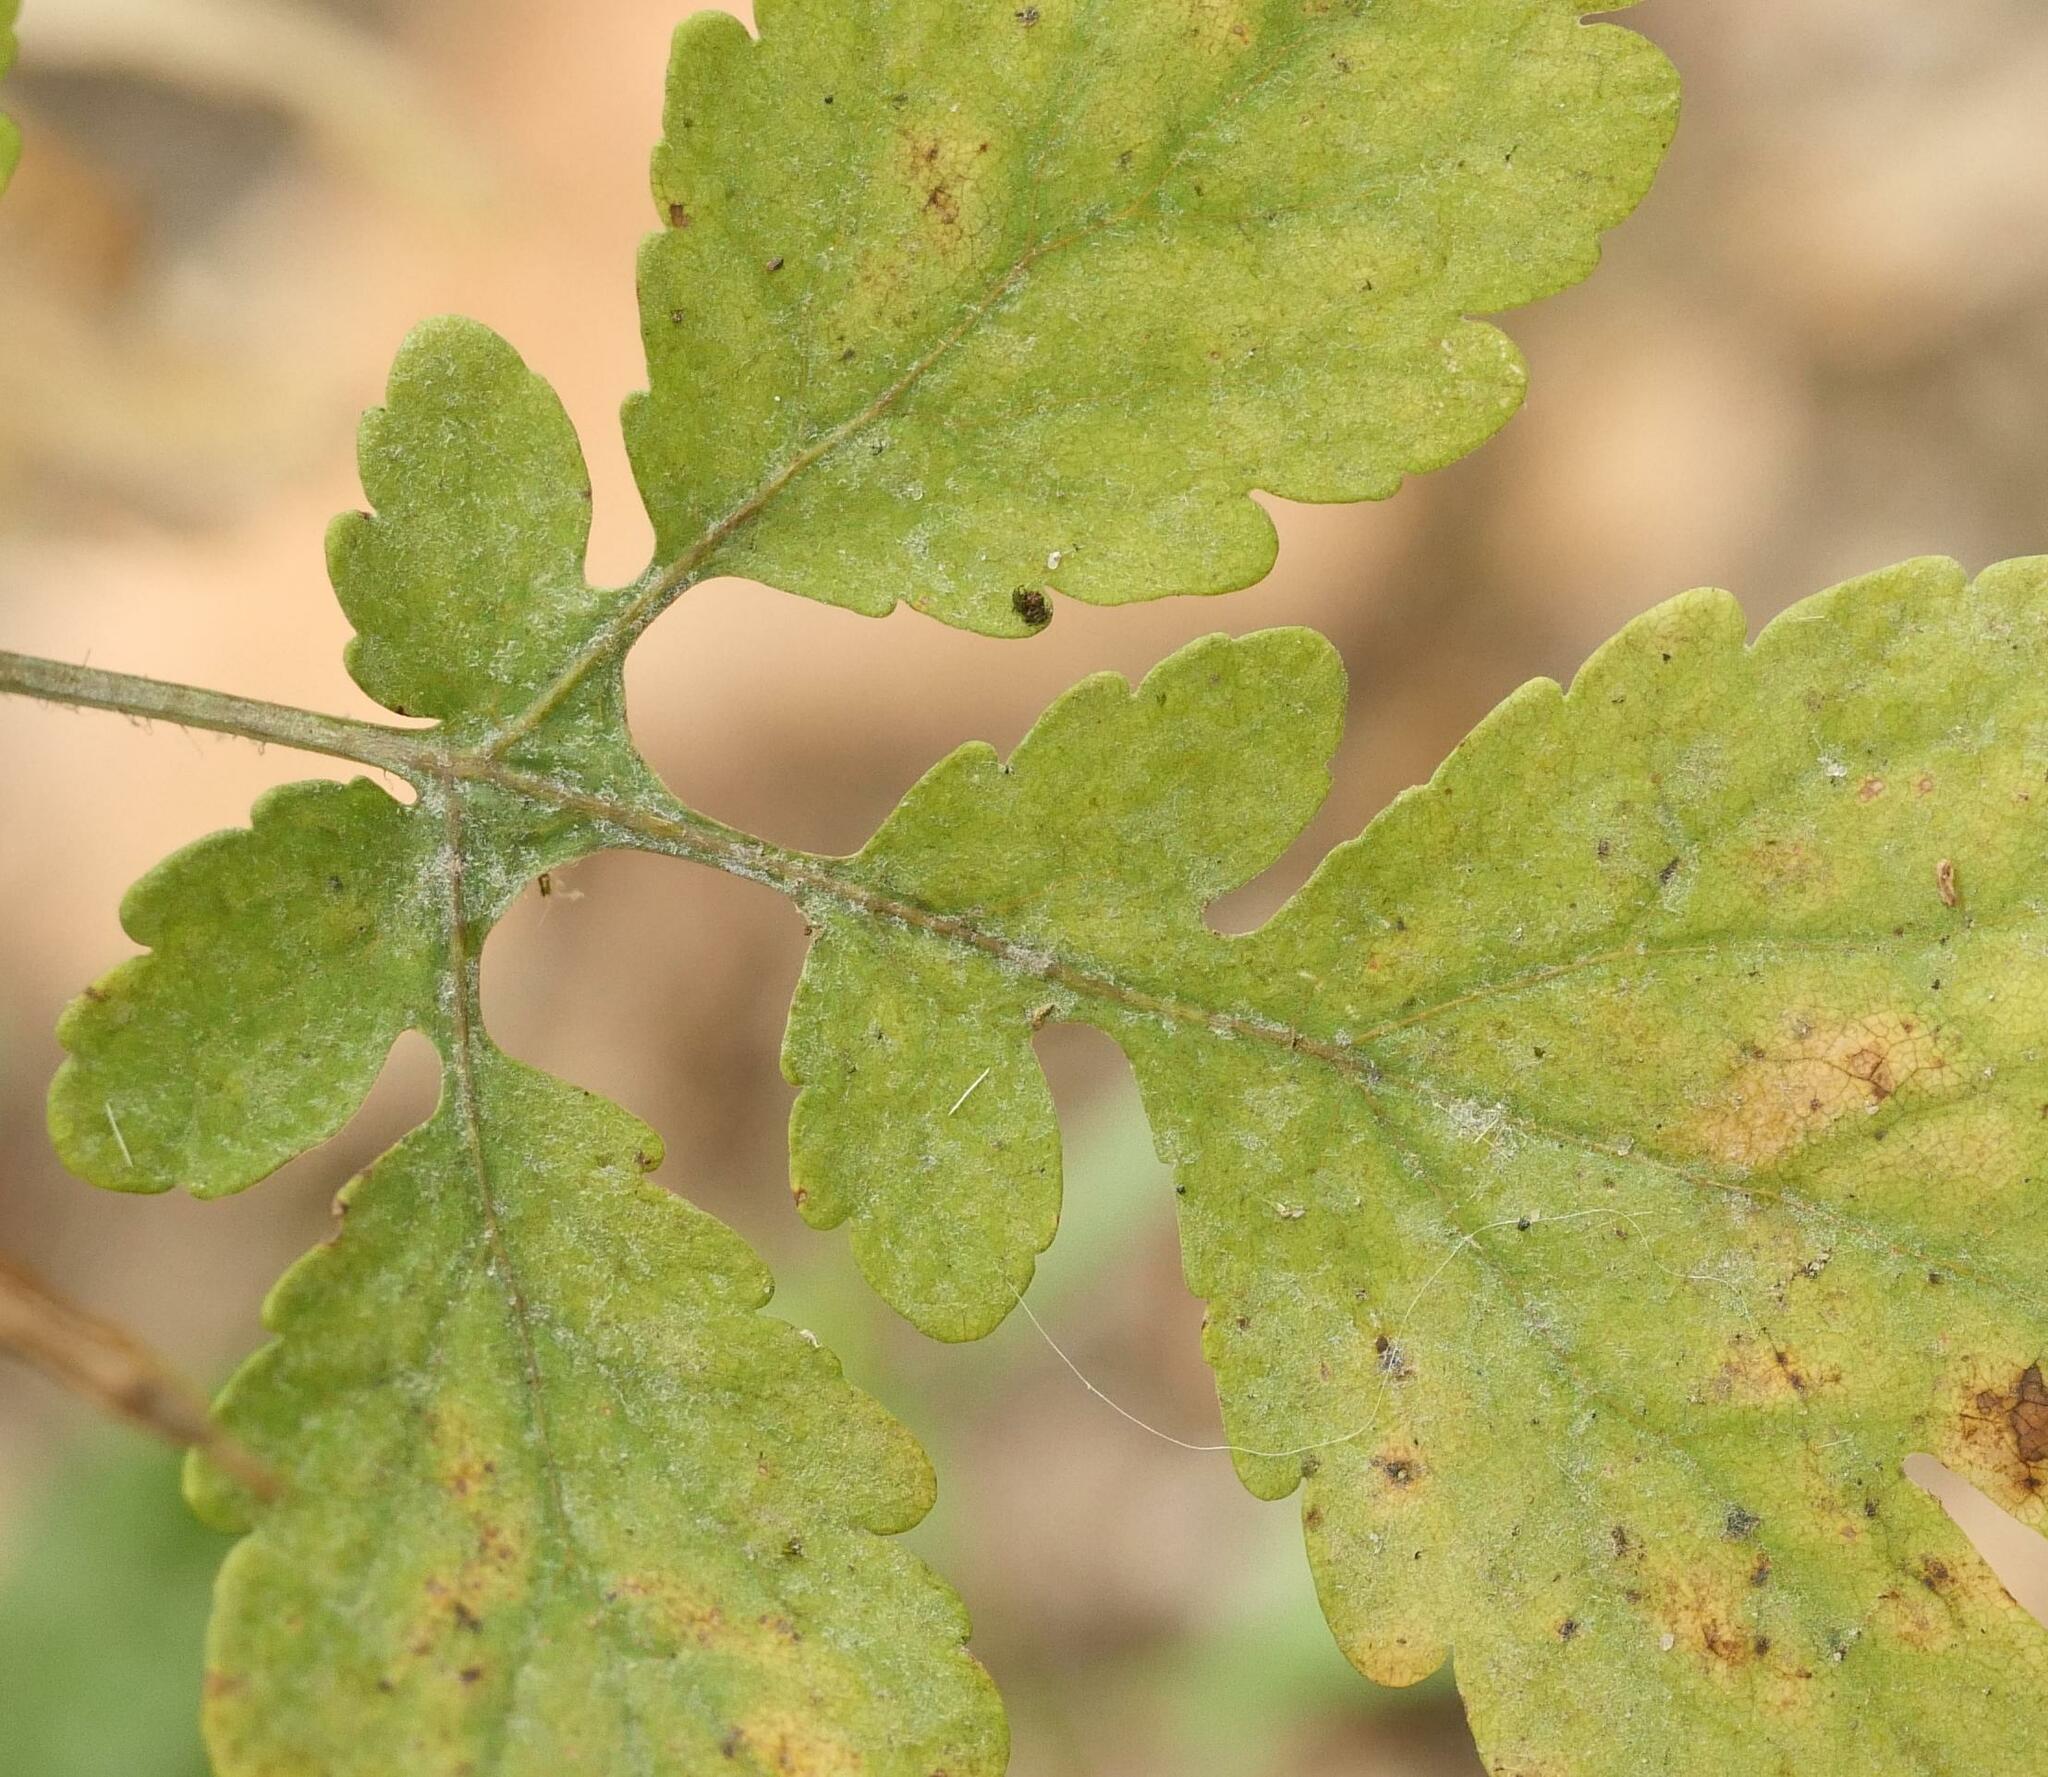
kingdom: Fungi
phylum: Ascomycota
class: Leotiomycetes
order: Helotiales
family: Erysiphaceae
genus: Erysiphe
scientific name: Erysiphe macleayae
